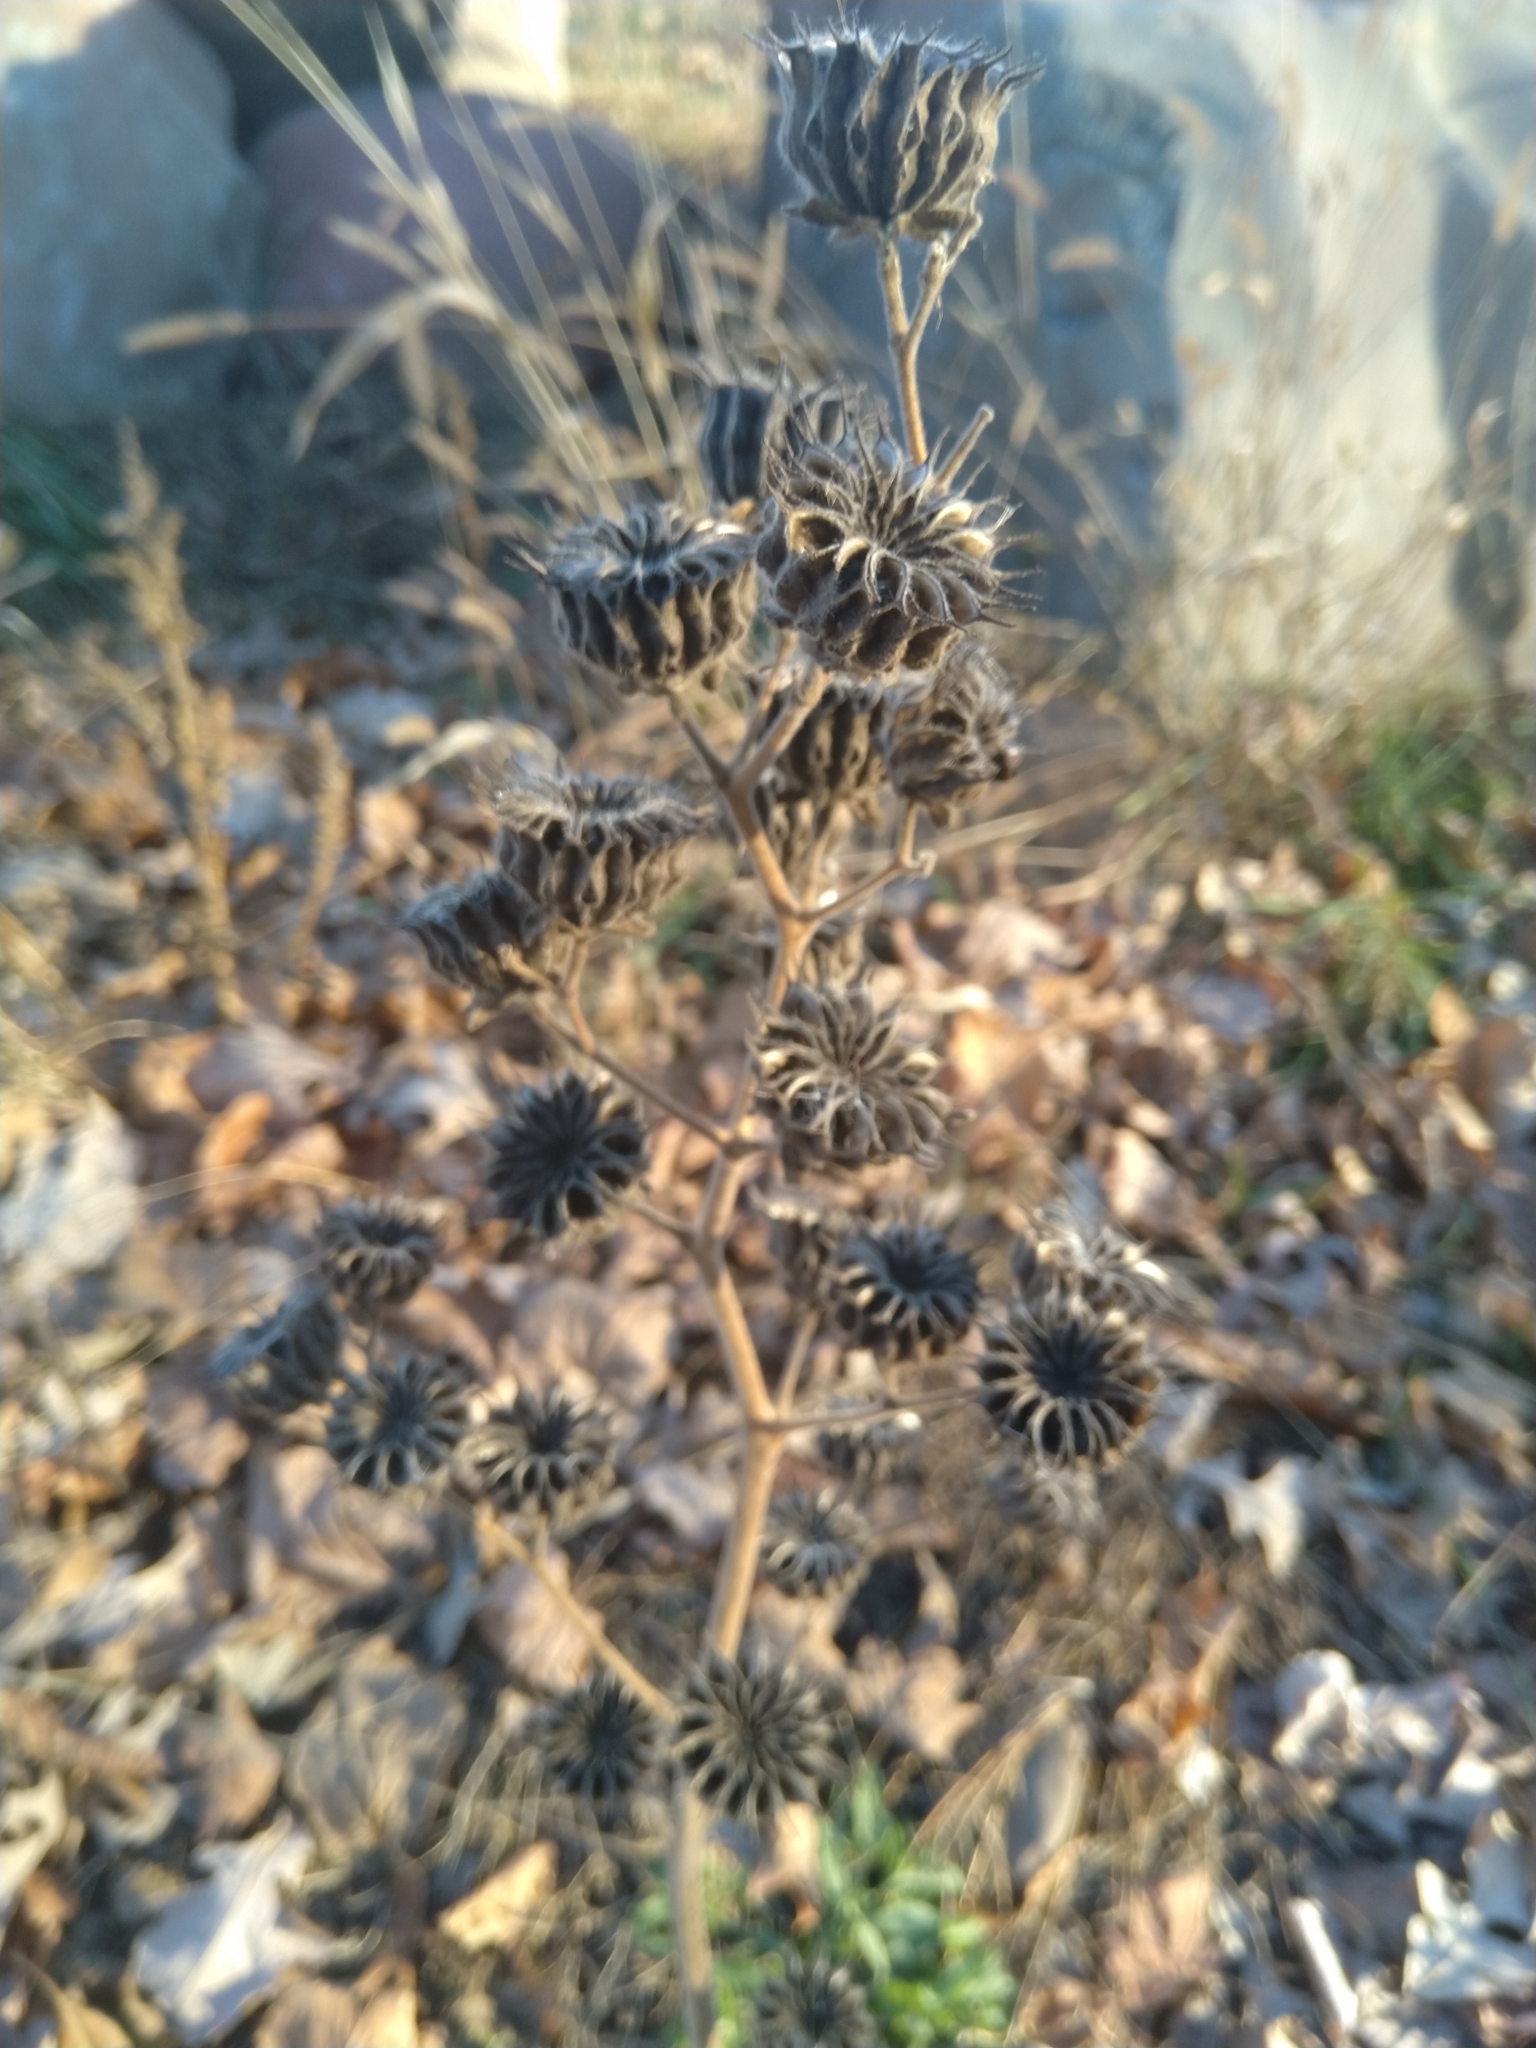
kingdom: Plantae
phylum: Tracheophyta
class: Magnoliopsida
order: Malvales
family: Malvaceae
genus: Abutilon
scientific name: Abutilon theophrasti
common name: Velvetleaf
